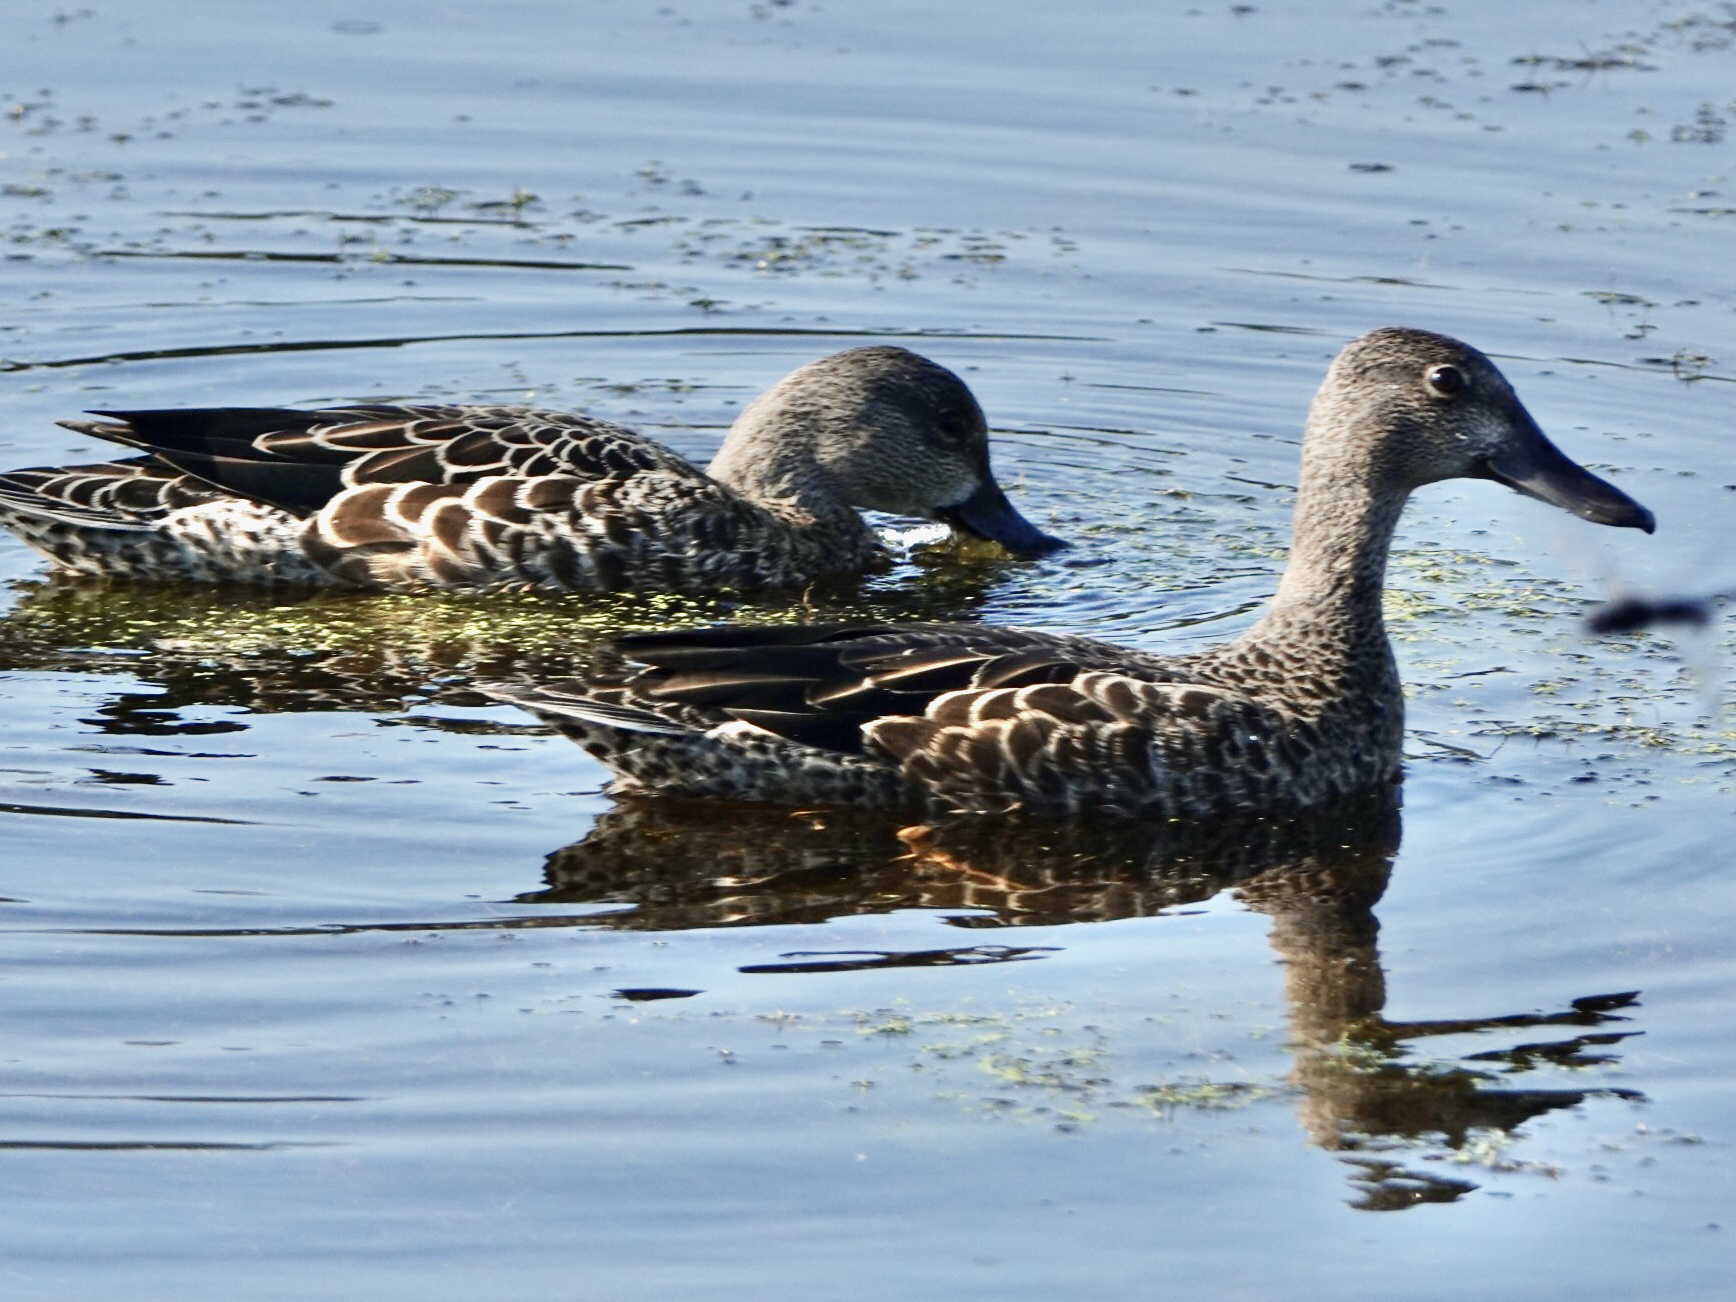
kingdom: Animalia
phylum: Chordata
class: Aves
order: Anseriformes
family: Anatidae
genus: Spatula
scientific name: Spatula discors
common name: Blue-winged teal
